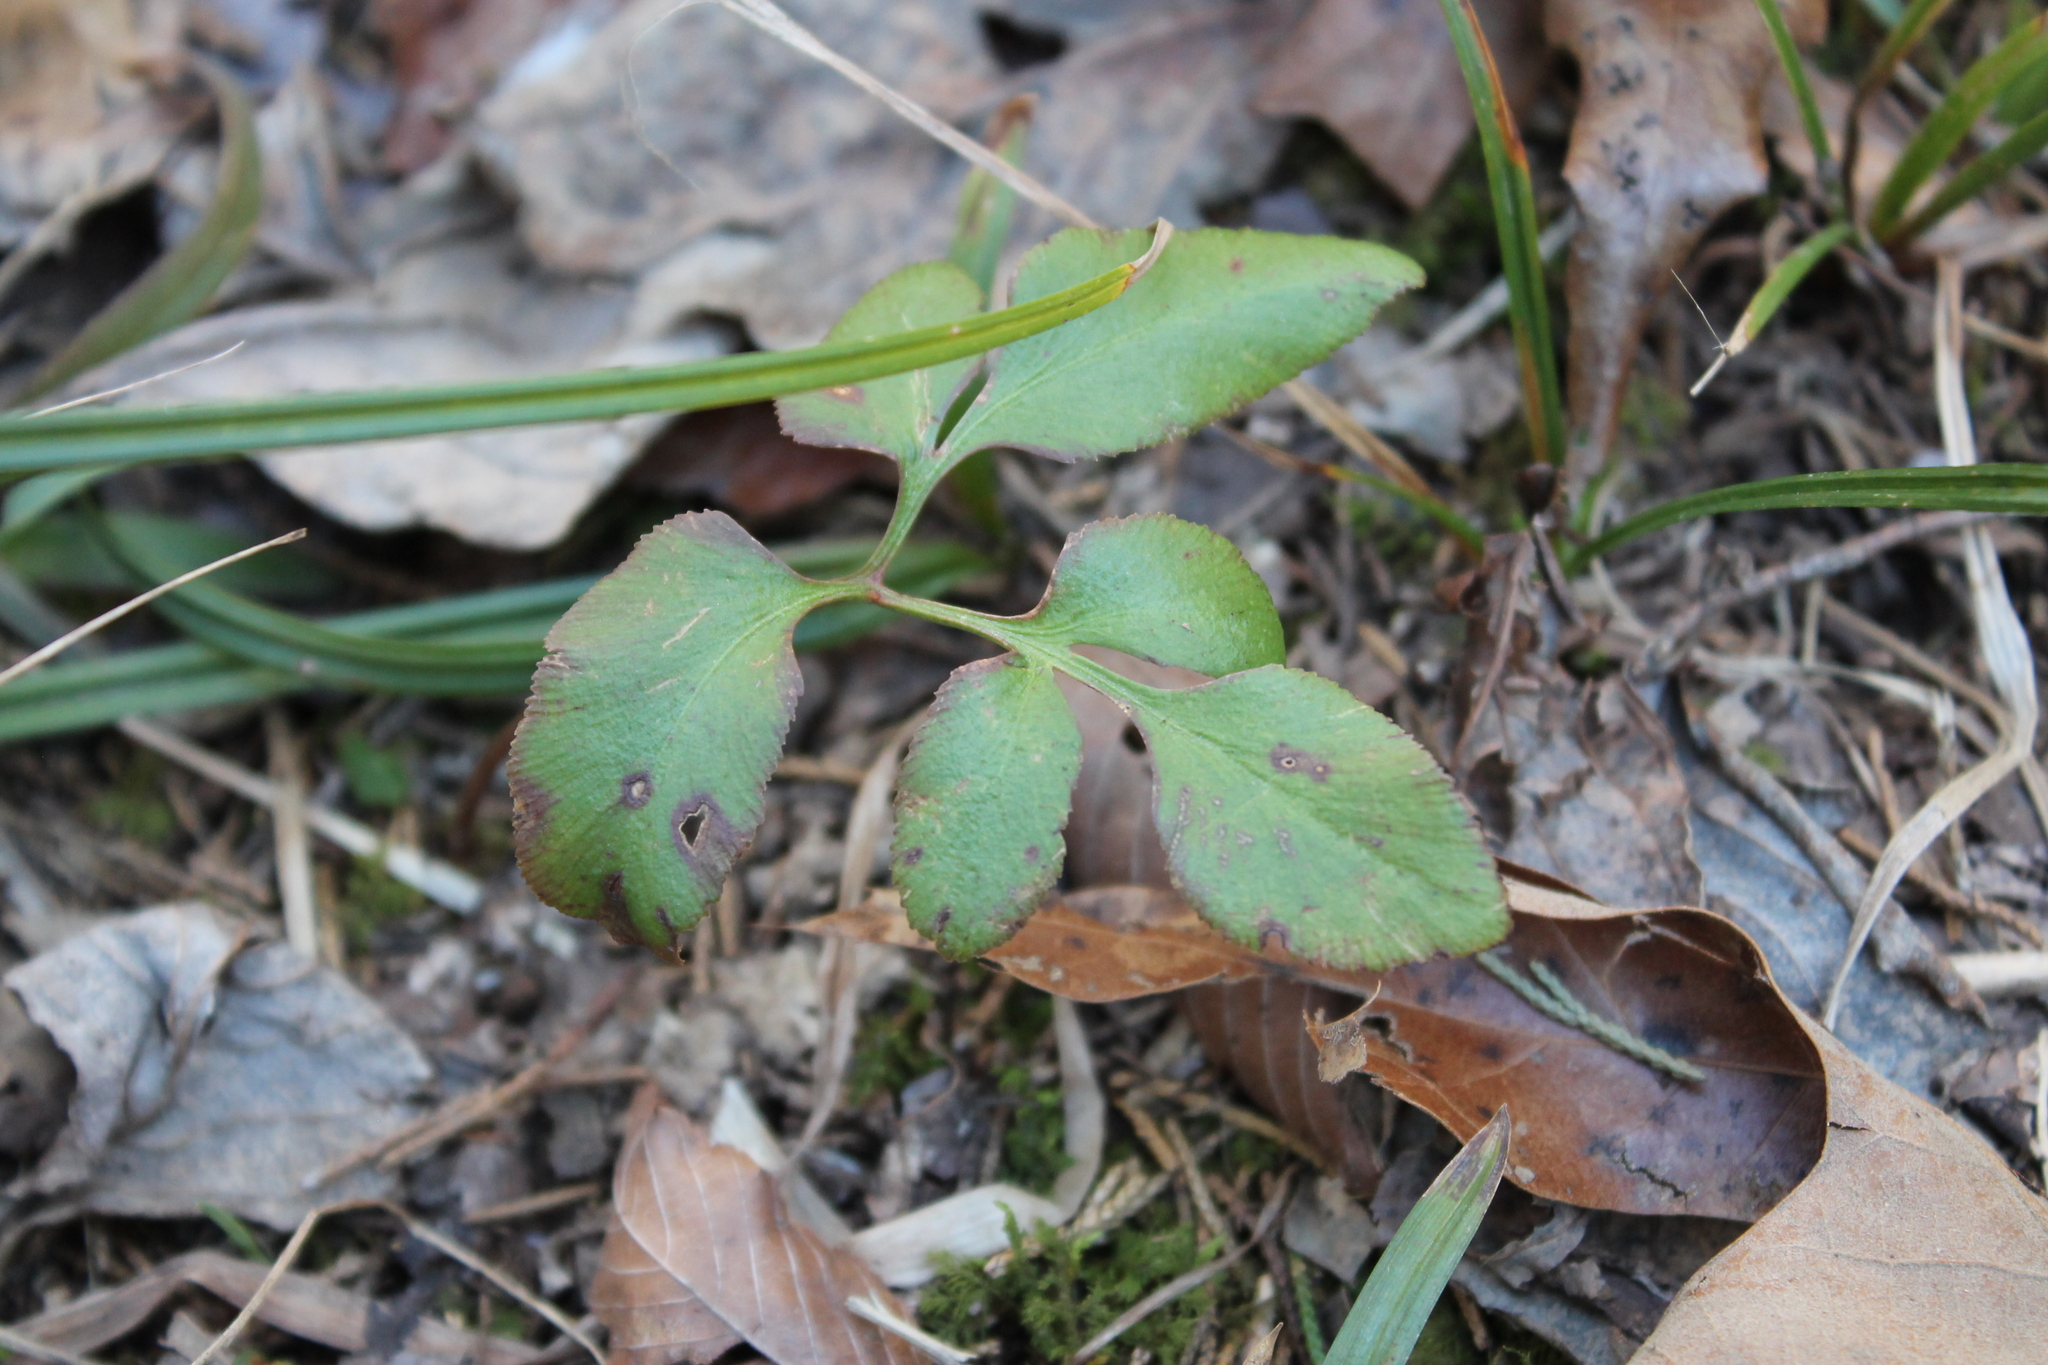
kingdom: Plantae
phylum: Tracheophyta
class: Polypodiopsida
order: Ophioglossales
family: Ophioglossaceae
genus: Sceptridium
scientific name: Sceptridium dissectum
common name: Cut-leaved grapefern
